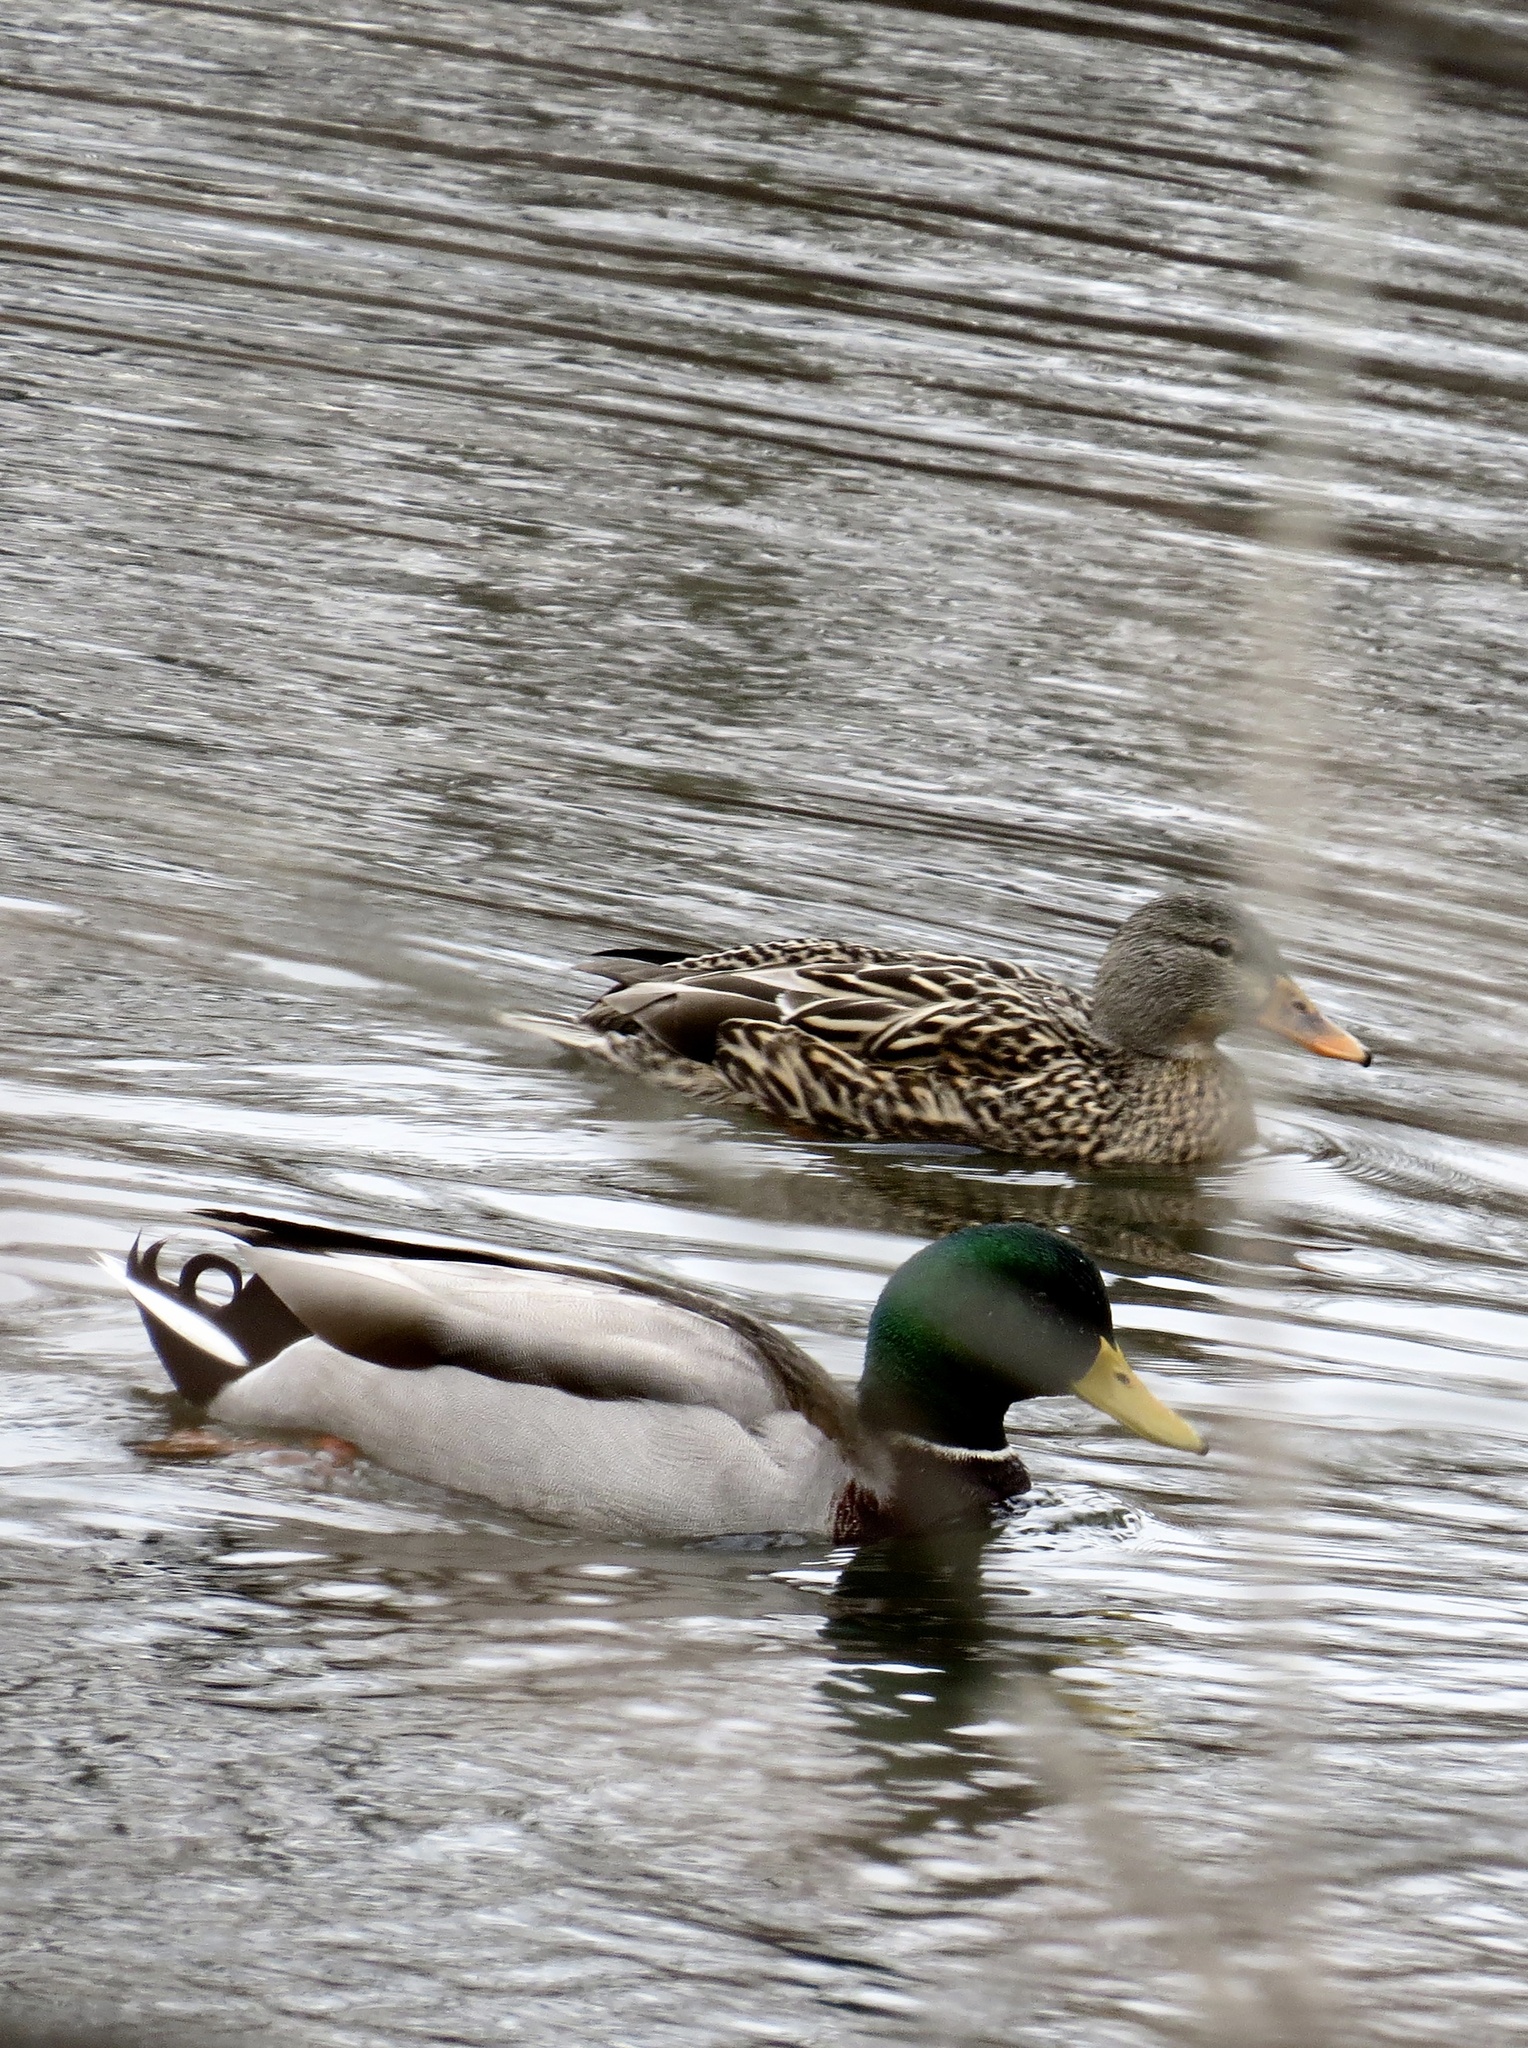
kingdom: Animalia
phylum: Chordata
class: Aves
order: Anseriformes
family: Anatidae
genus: Anas
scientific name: Anas platyrhynchos
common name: Mallard
